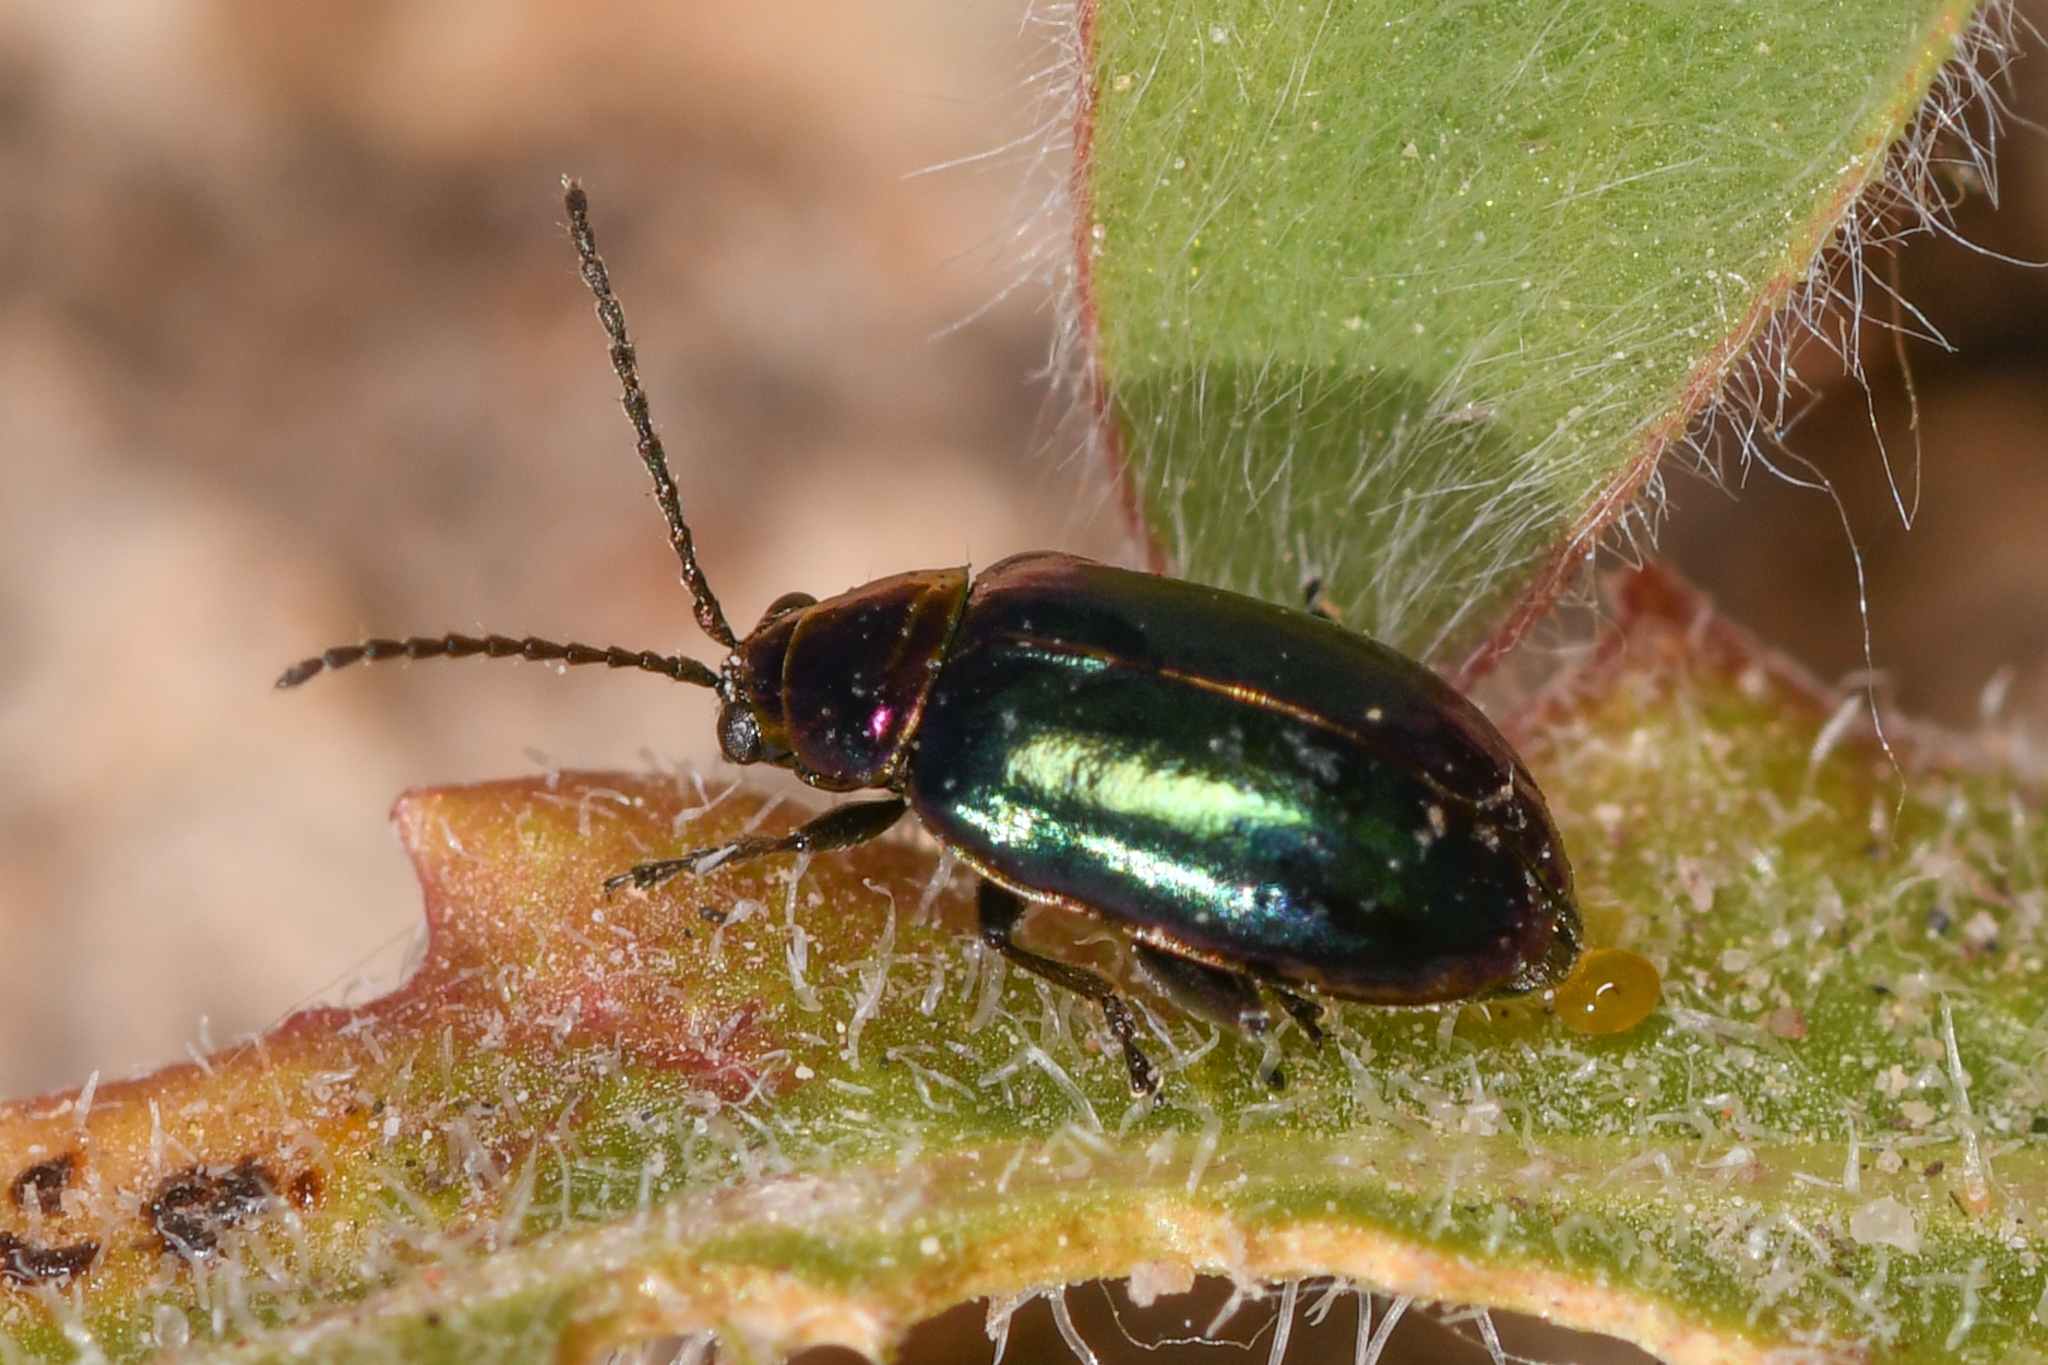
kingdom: Animalia
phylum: Arthropoda
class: Insecta
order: Coleoptera
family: Chrysomelidae
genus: Altica
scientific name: Altica torquata
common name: Leaf beetle
